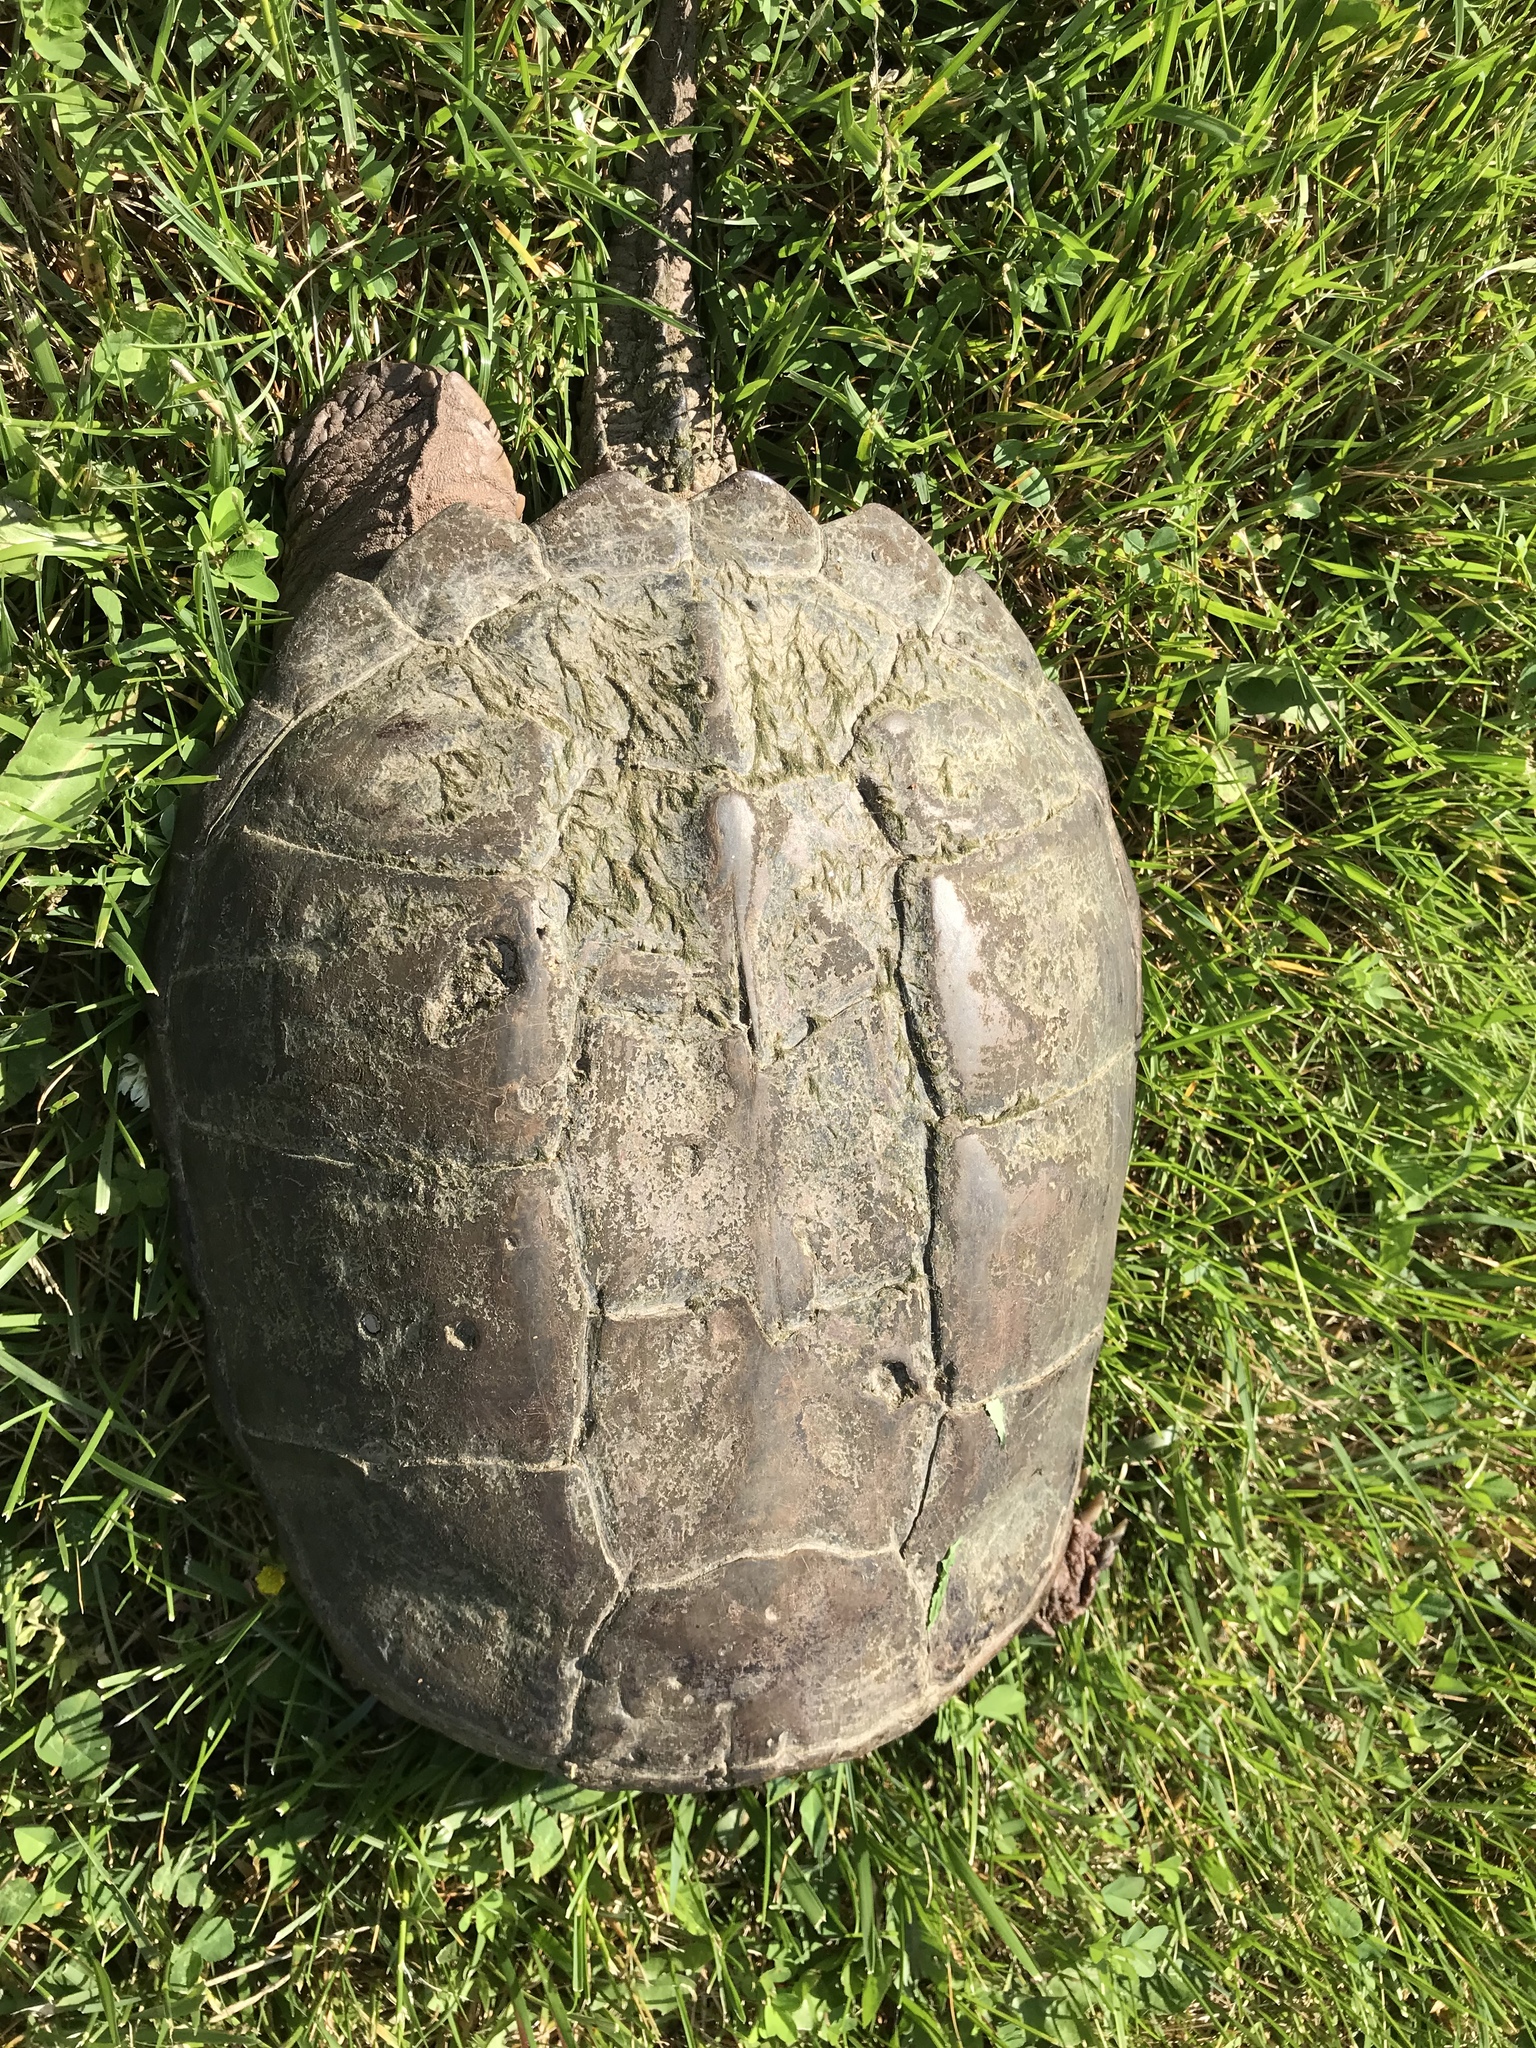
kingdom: Animalia
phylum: Chordata
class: Testudines
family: Chelydridae
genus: Chelydra
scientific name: Chelydra serpentina
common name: Common snapping turtle
